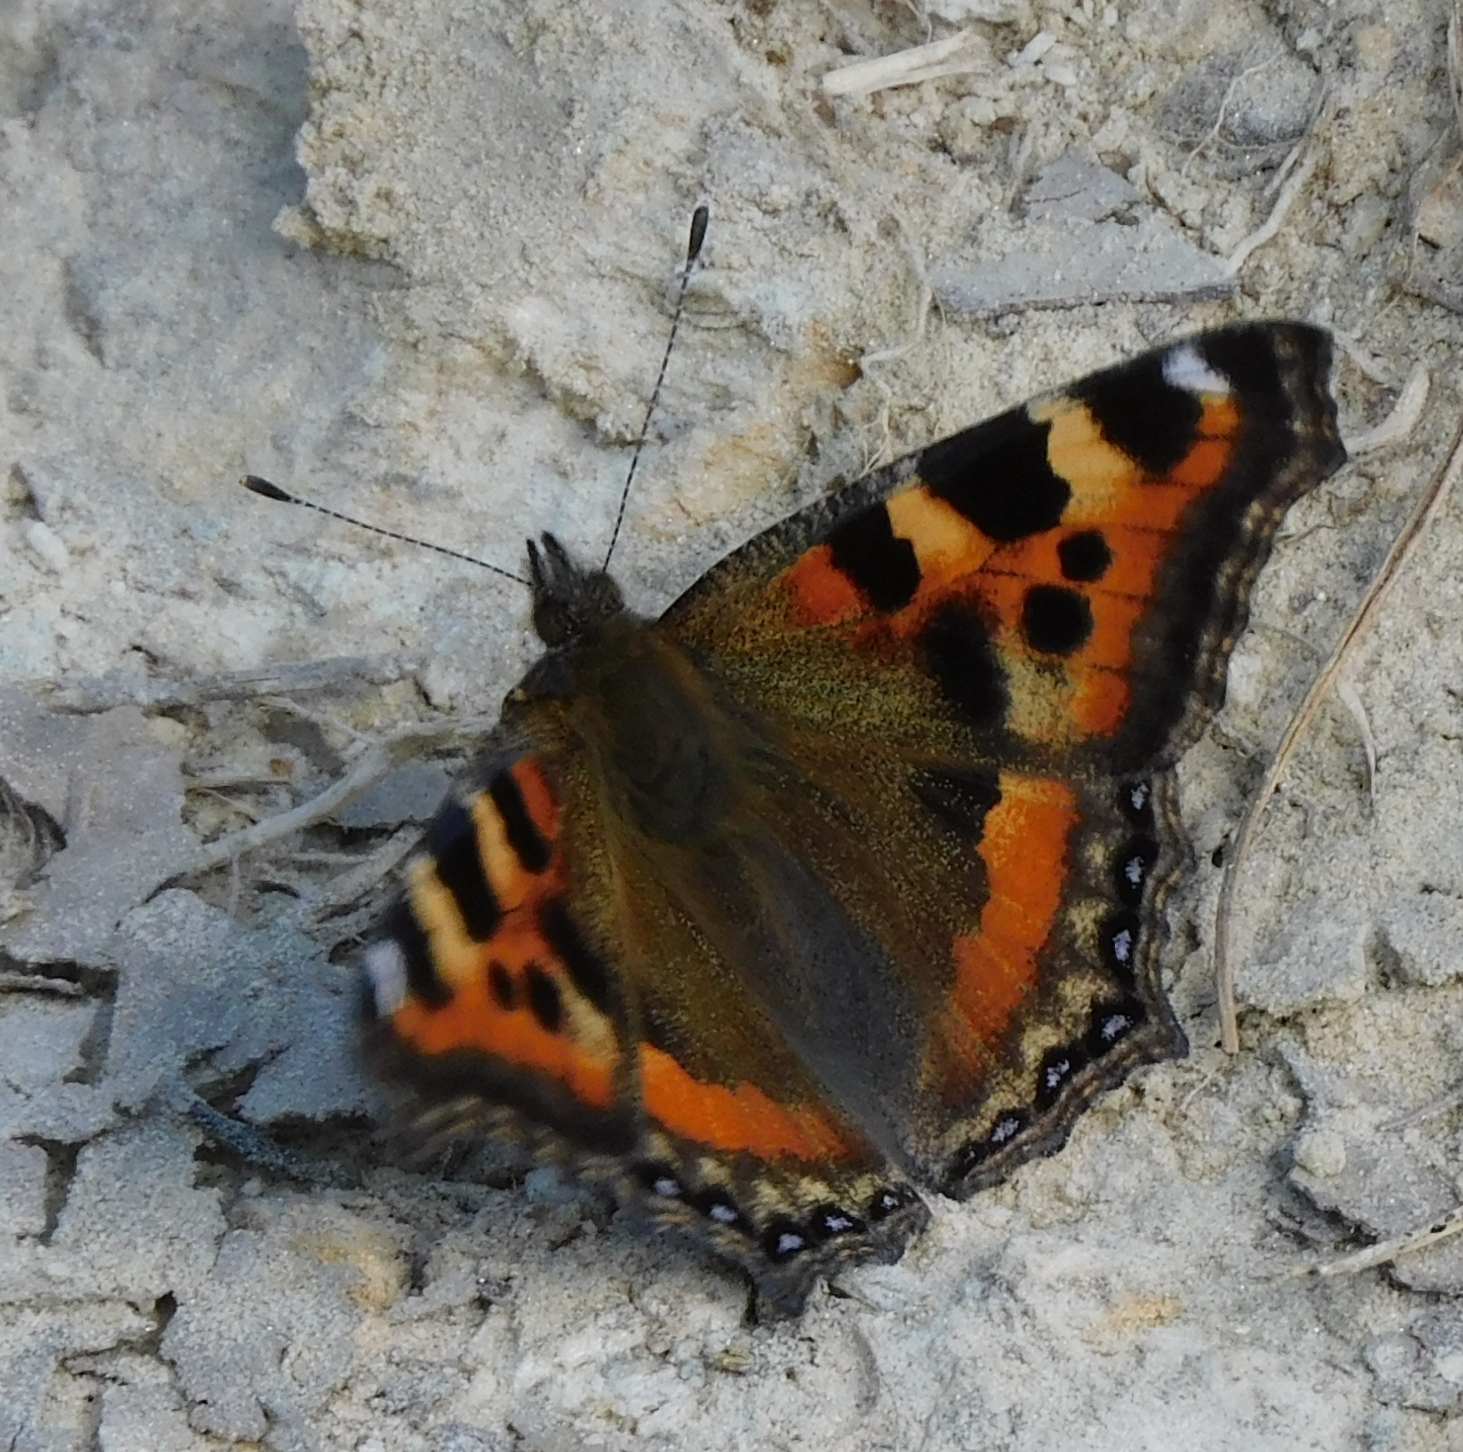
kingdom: Animalia
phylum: Arthropoda
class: Insecta
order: Lepidoptera
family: Nymphalidae
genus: Aglais
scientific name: Aglais caschmirensis
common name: Indian tortoiseshell
